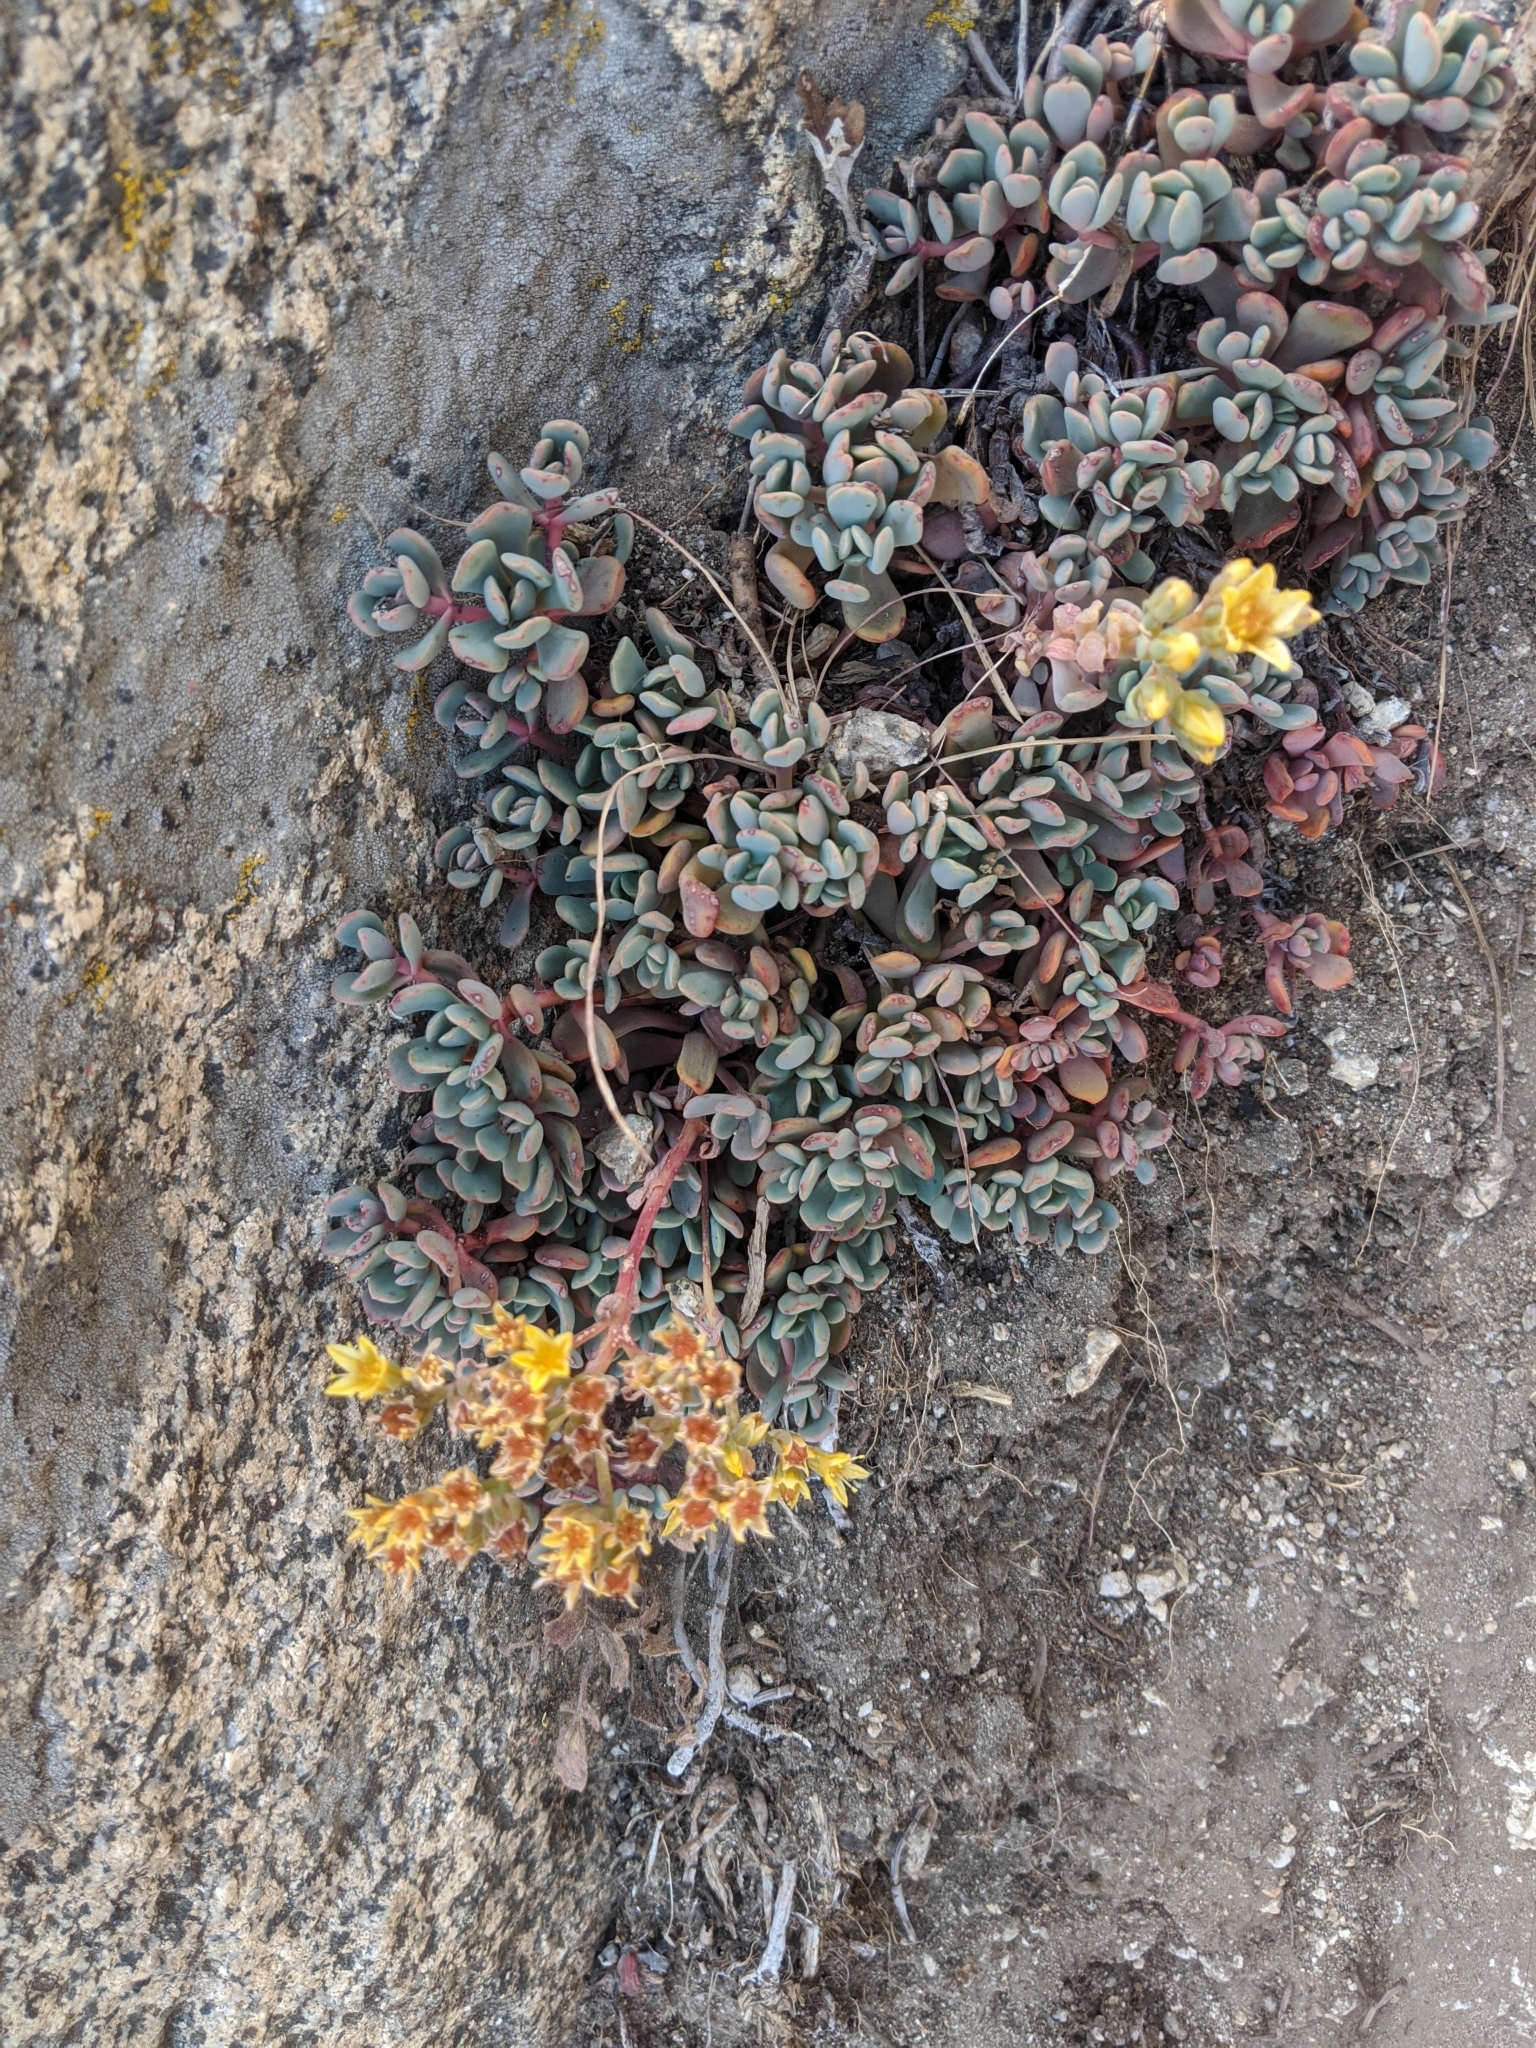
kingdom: Plantae
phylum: Tracheophyta
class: Magnoliopsida
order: Saxifragales
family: Crassulaceae
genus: Sedum
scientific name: Sedum obtusatum
